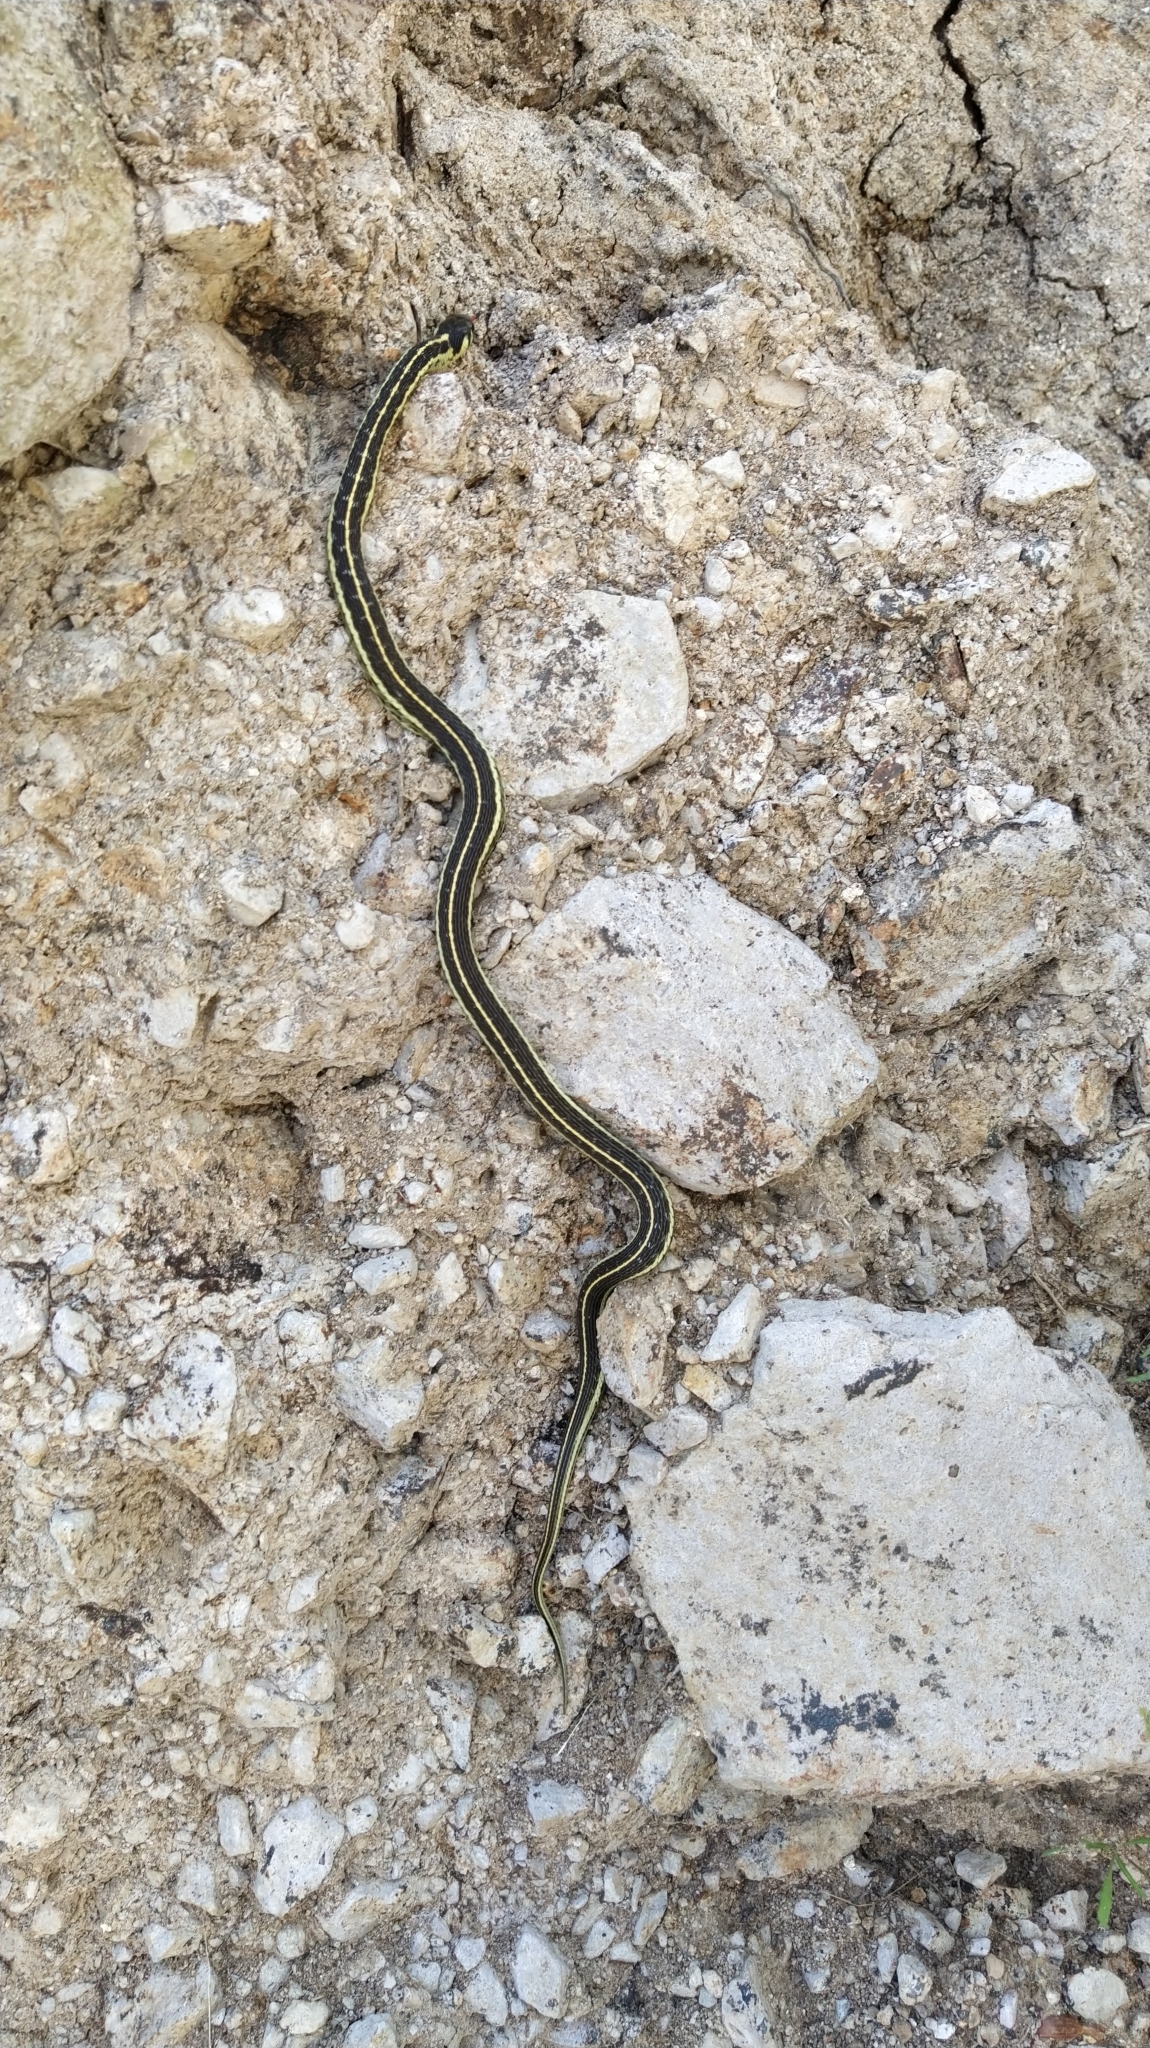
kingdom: Animalia
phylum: Chordata
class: Squamata
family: Colubridae
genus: Thamnophis
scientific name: Thamnophis pulchrilatus
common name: Yellow-throated gartersnake
